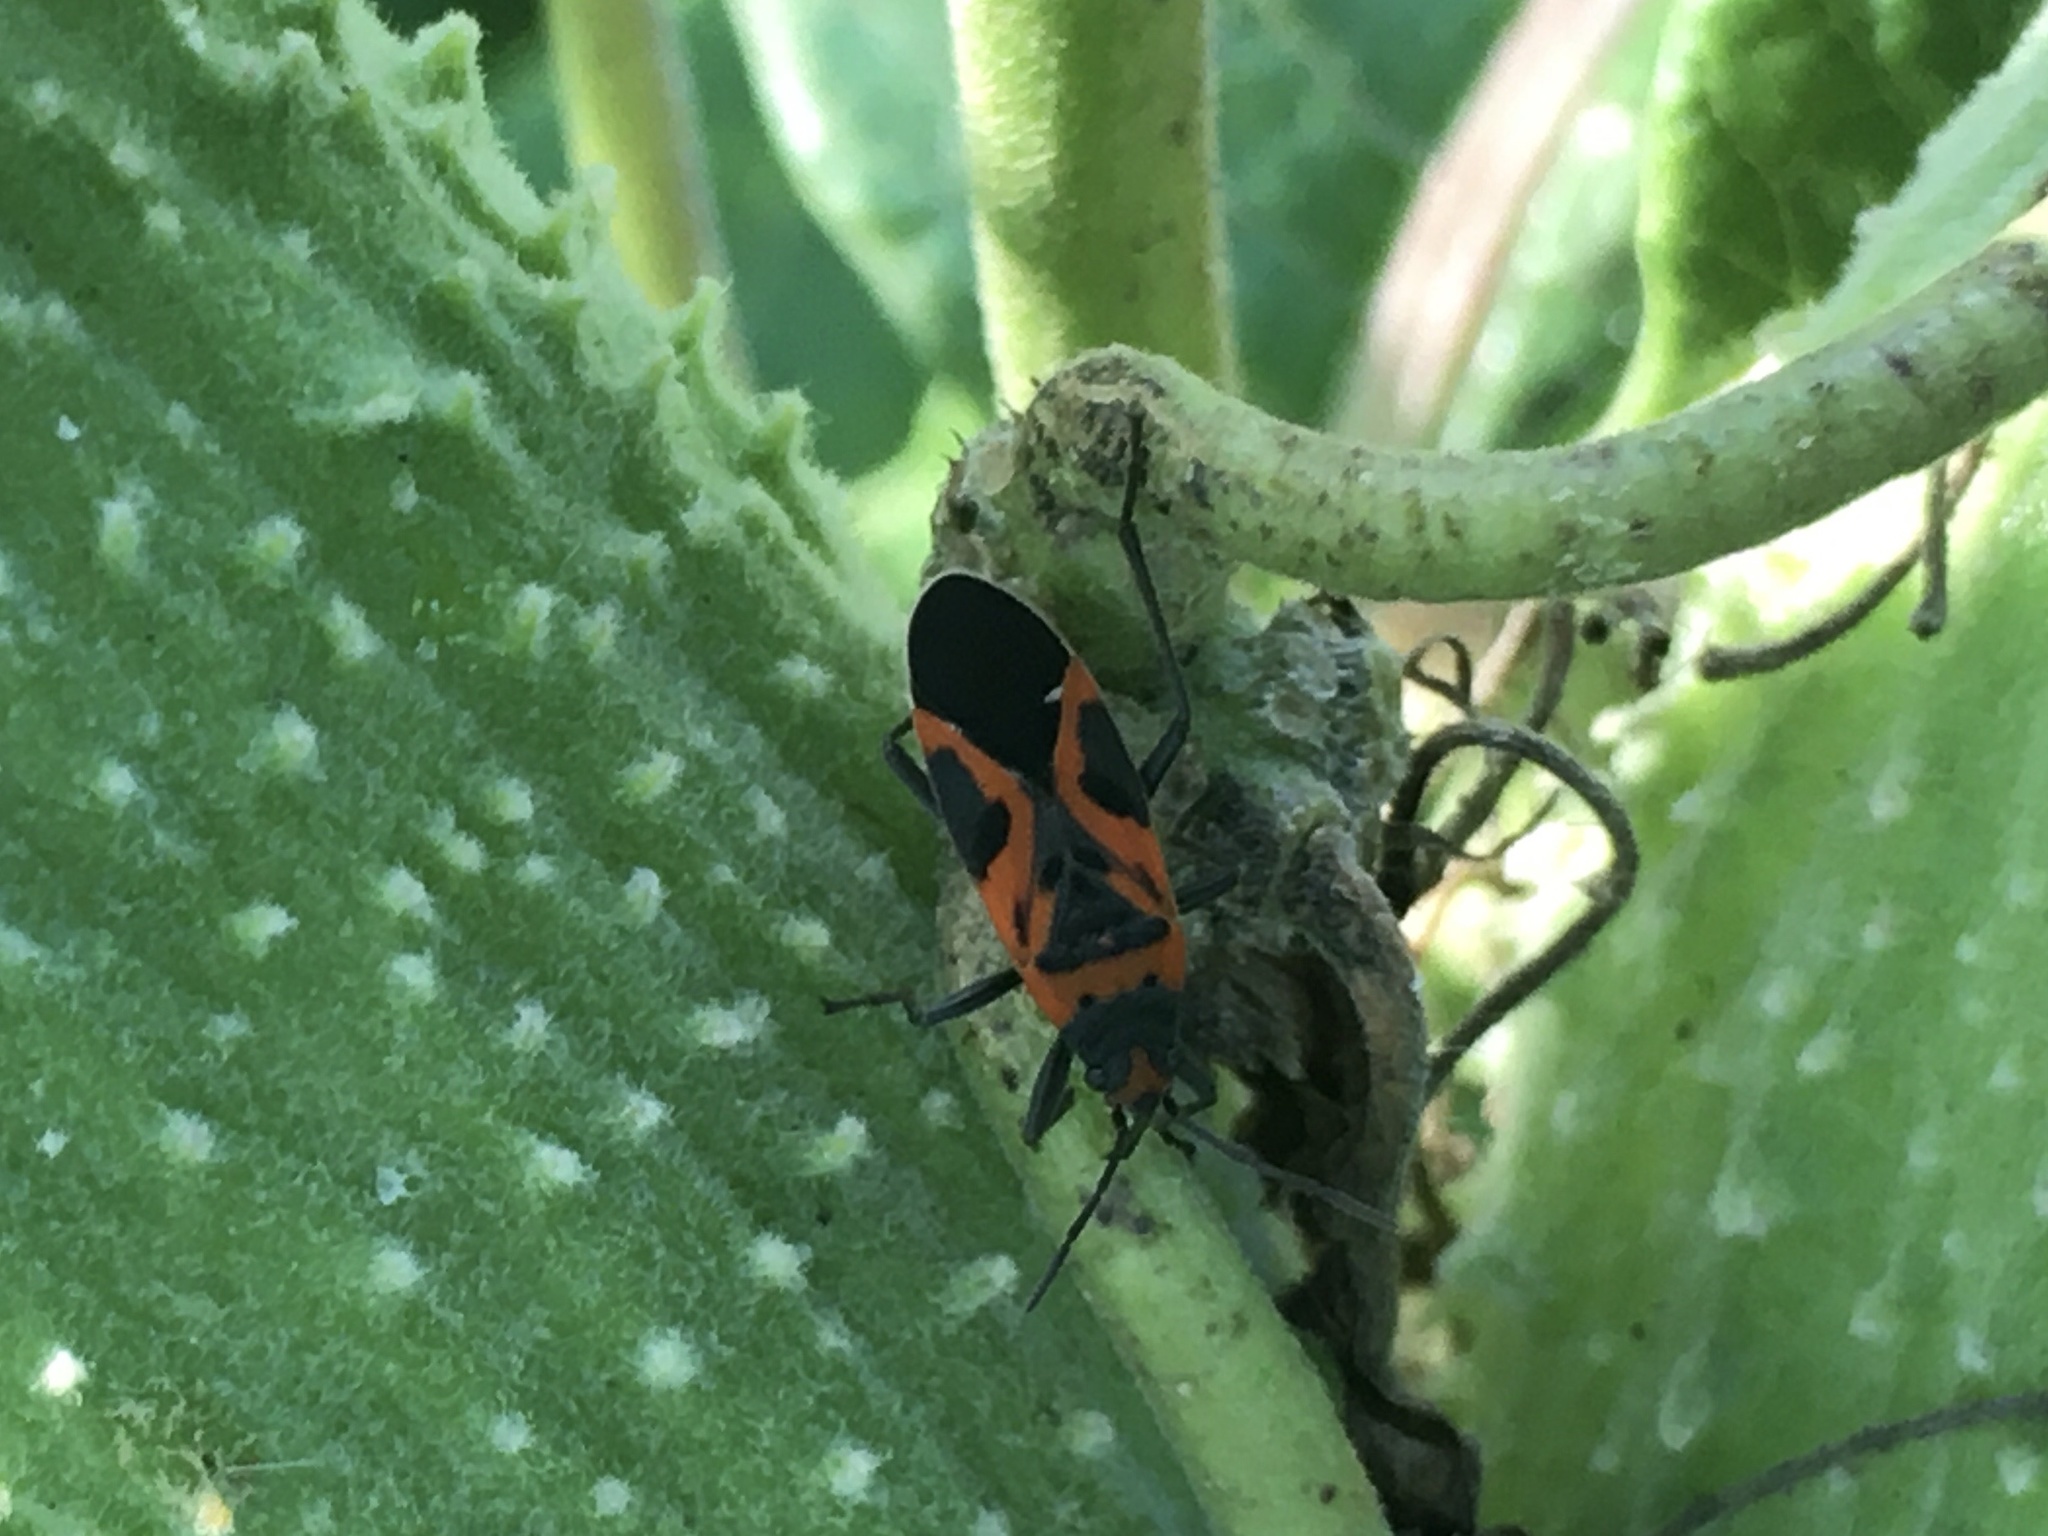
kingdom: Animalia
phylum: Arthropoda
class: Insecta
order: Hemiptera
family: Lygaeidae
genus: Lygaeus
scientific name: Lygaeus turcicus
